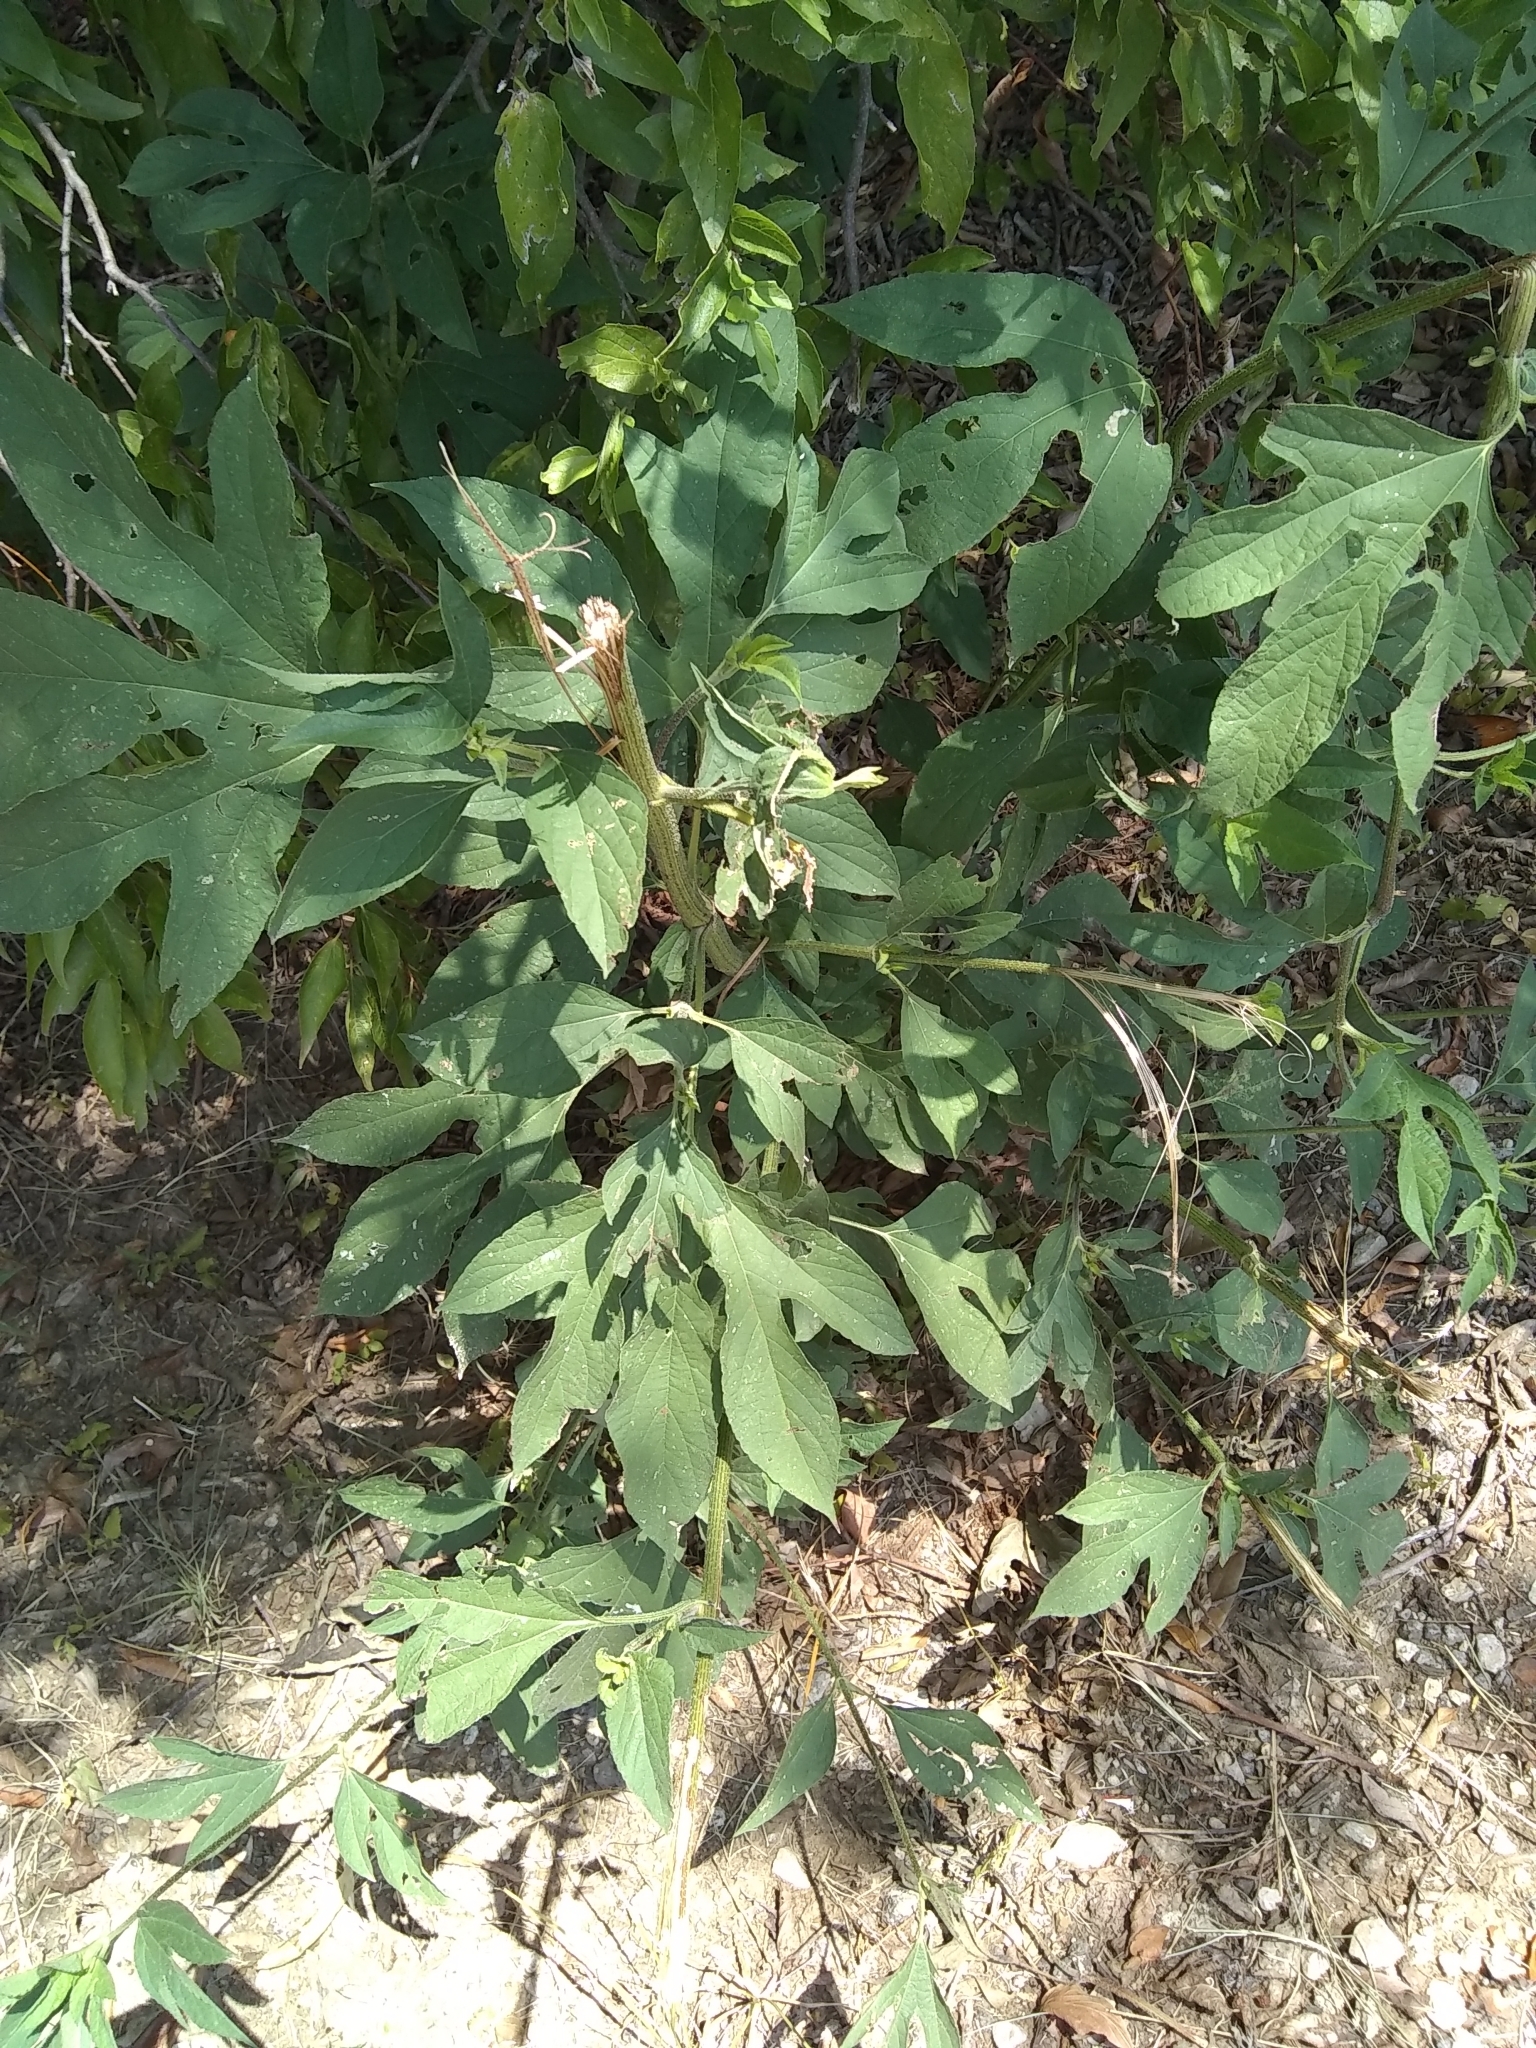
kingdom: Plantae
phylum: Tracheophyta
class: Magnoliopsida
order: Asterales
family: Asteraceae
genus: Ambrosia
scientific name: Ambrosia trifida
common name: Giant ragweed
